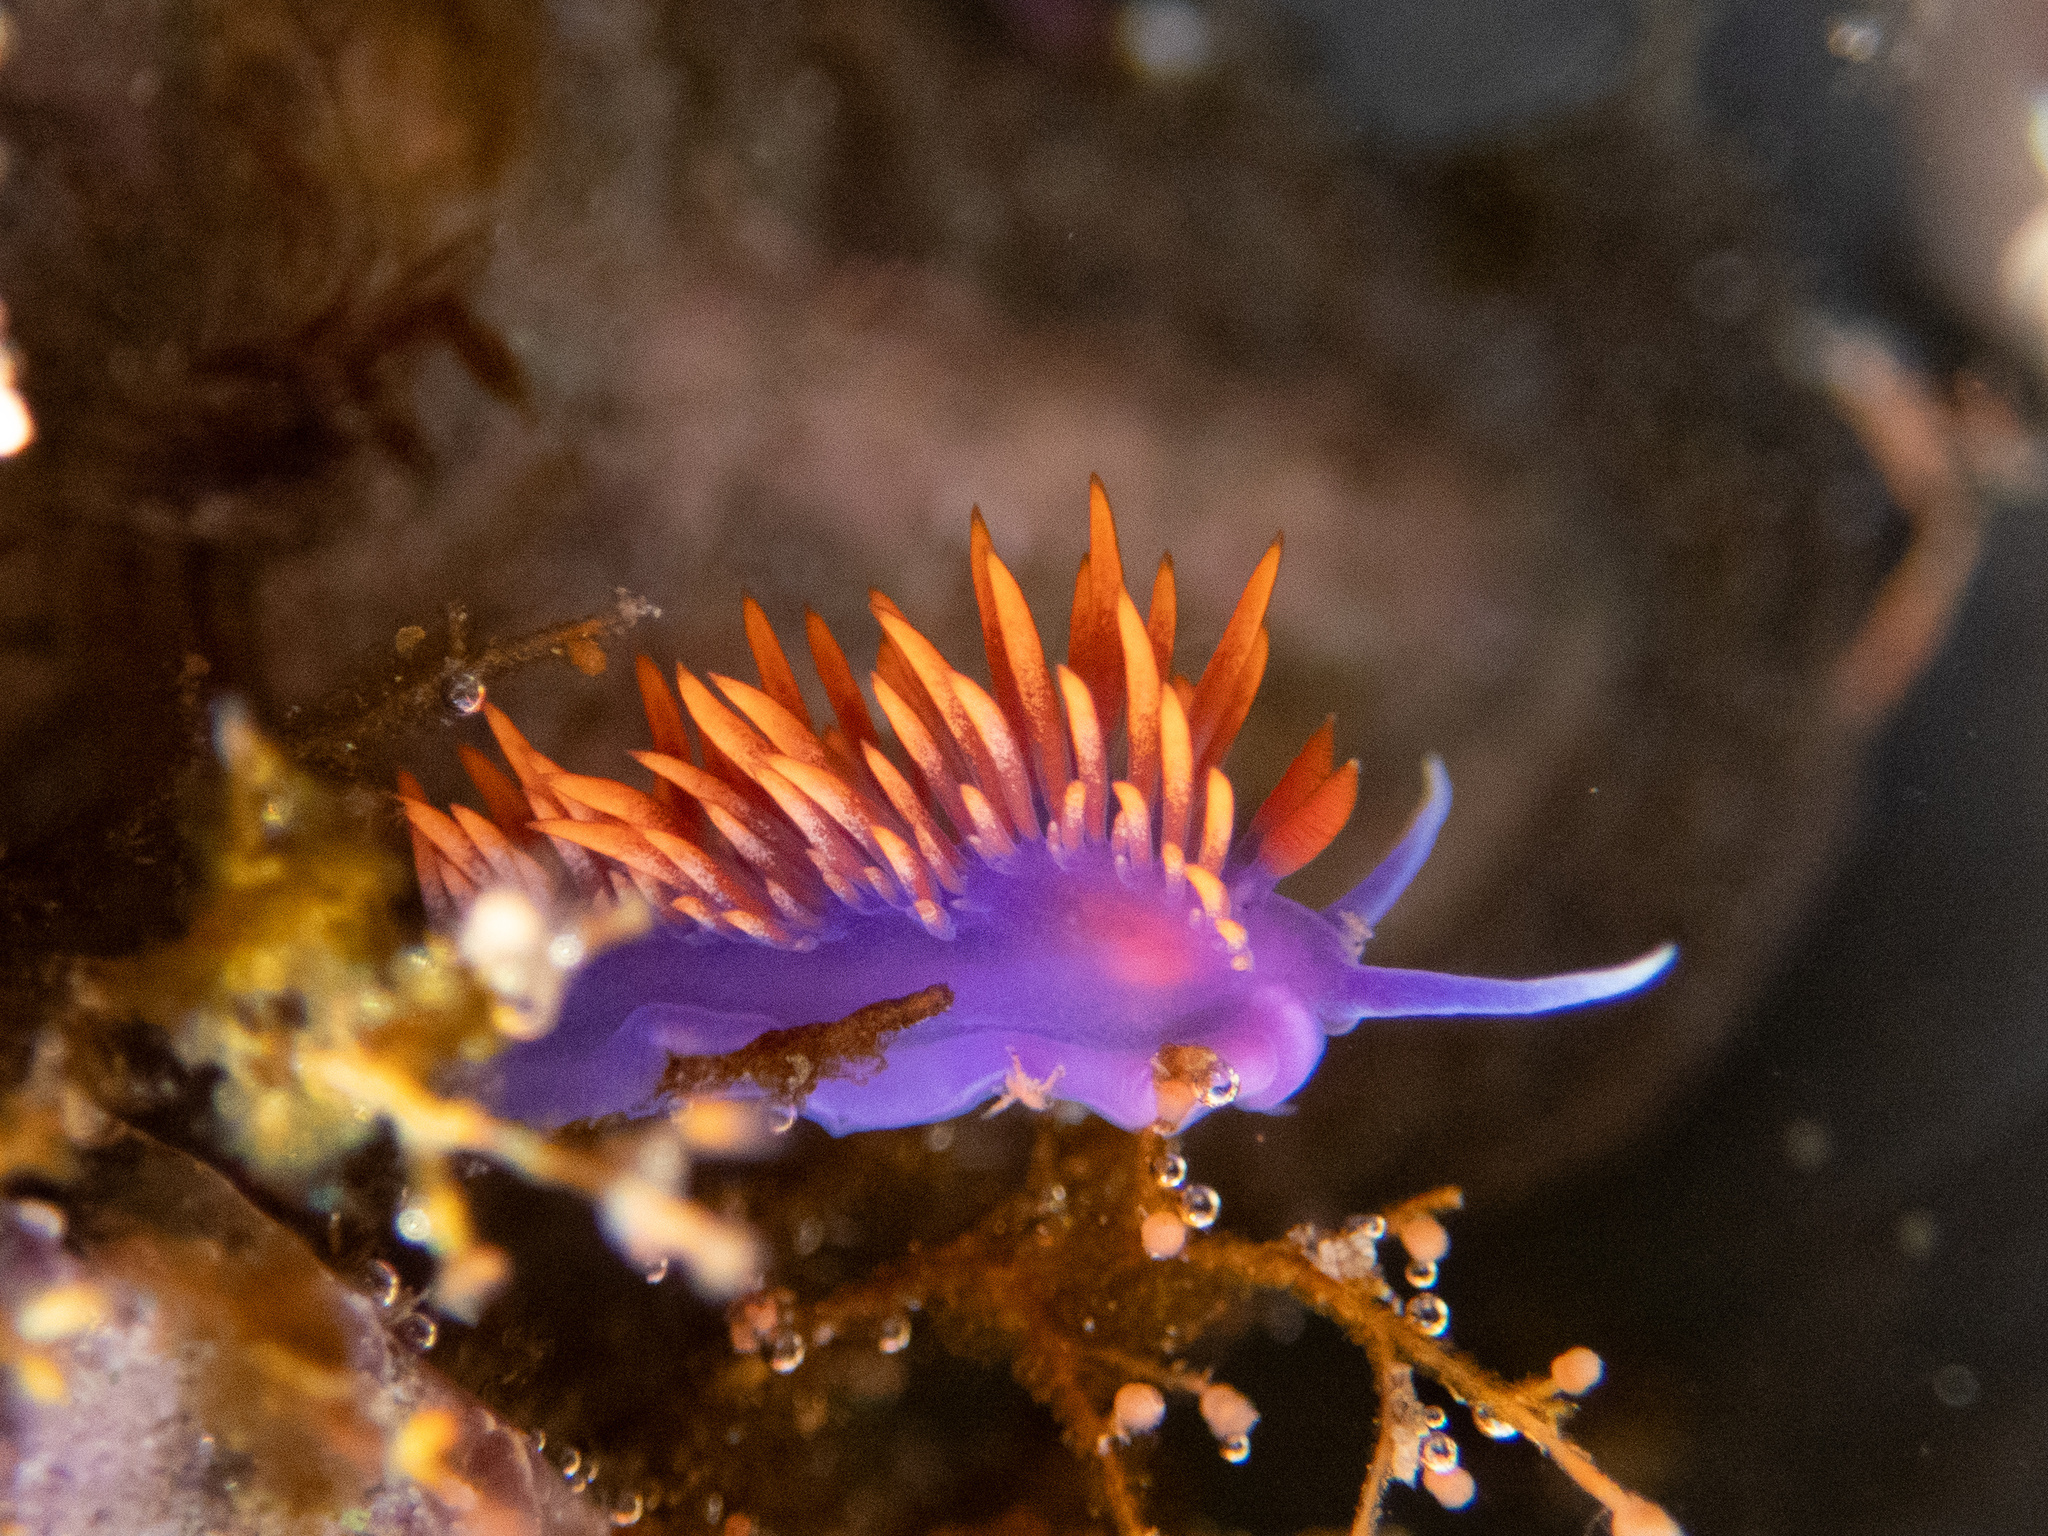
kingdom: Animalia
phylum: Mollusca
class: Gastropoda
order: Nudibranchia
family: Flabellinopsidae
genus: Flabellinopsis
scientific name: Flabellinopsis iodinea
